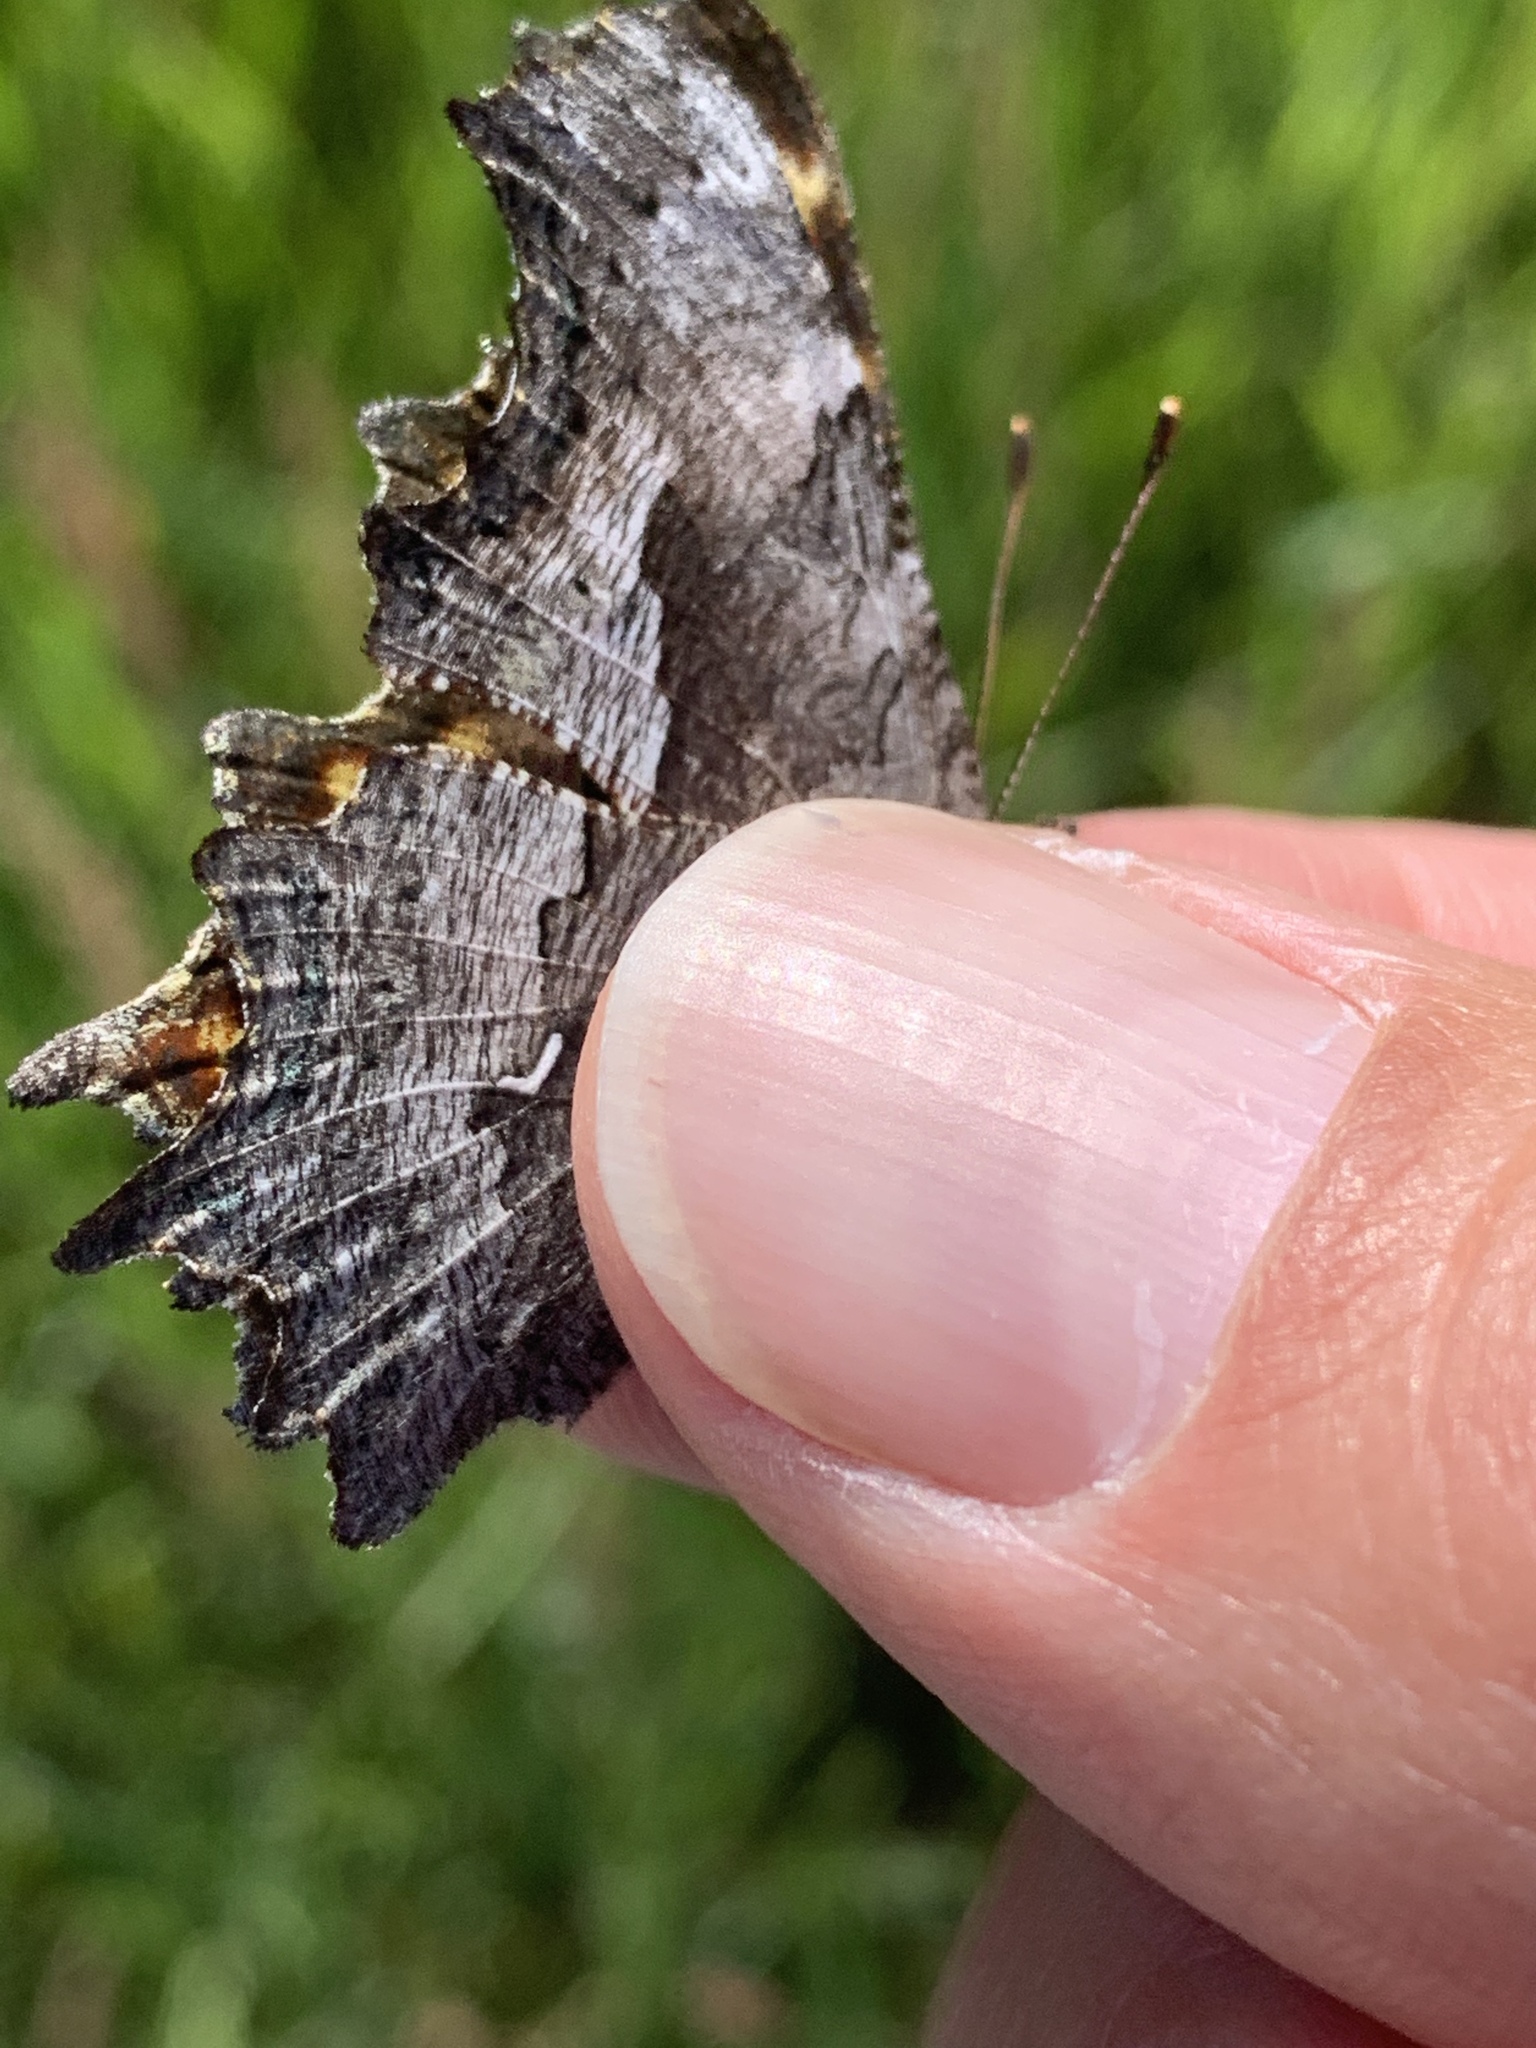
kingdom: Animalia
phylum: Arthropoda
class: Insecta
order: Lepidoptera
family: Nymphalidae
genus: Polygonia
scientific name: Polygonia gracilis
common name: Hoary comma
